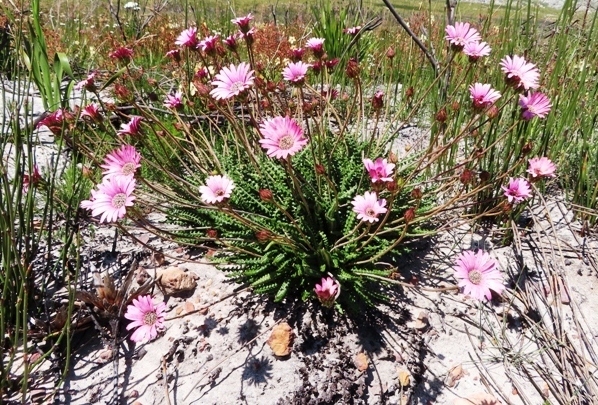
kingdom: Plantae
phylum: Tracheophyta
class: Magnoliopsida
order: Asterales
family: Asteraceae
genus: Gerbera
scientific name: Gerbera linnaei
